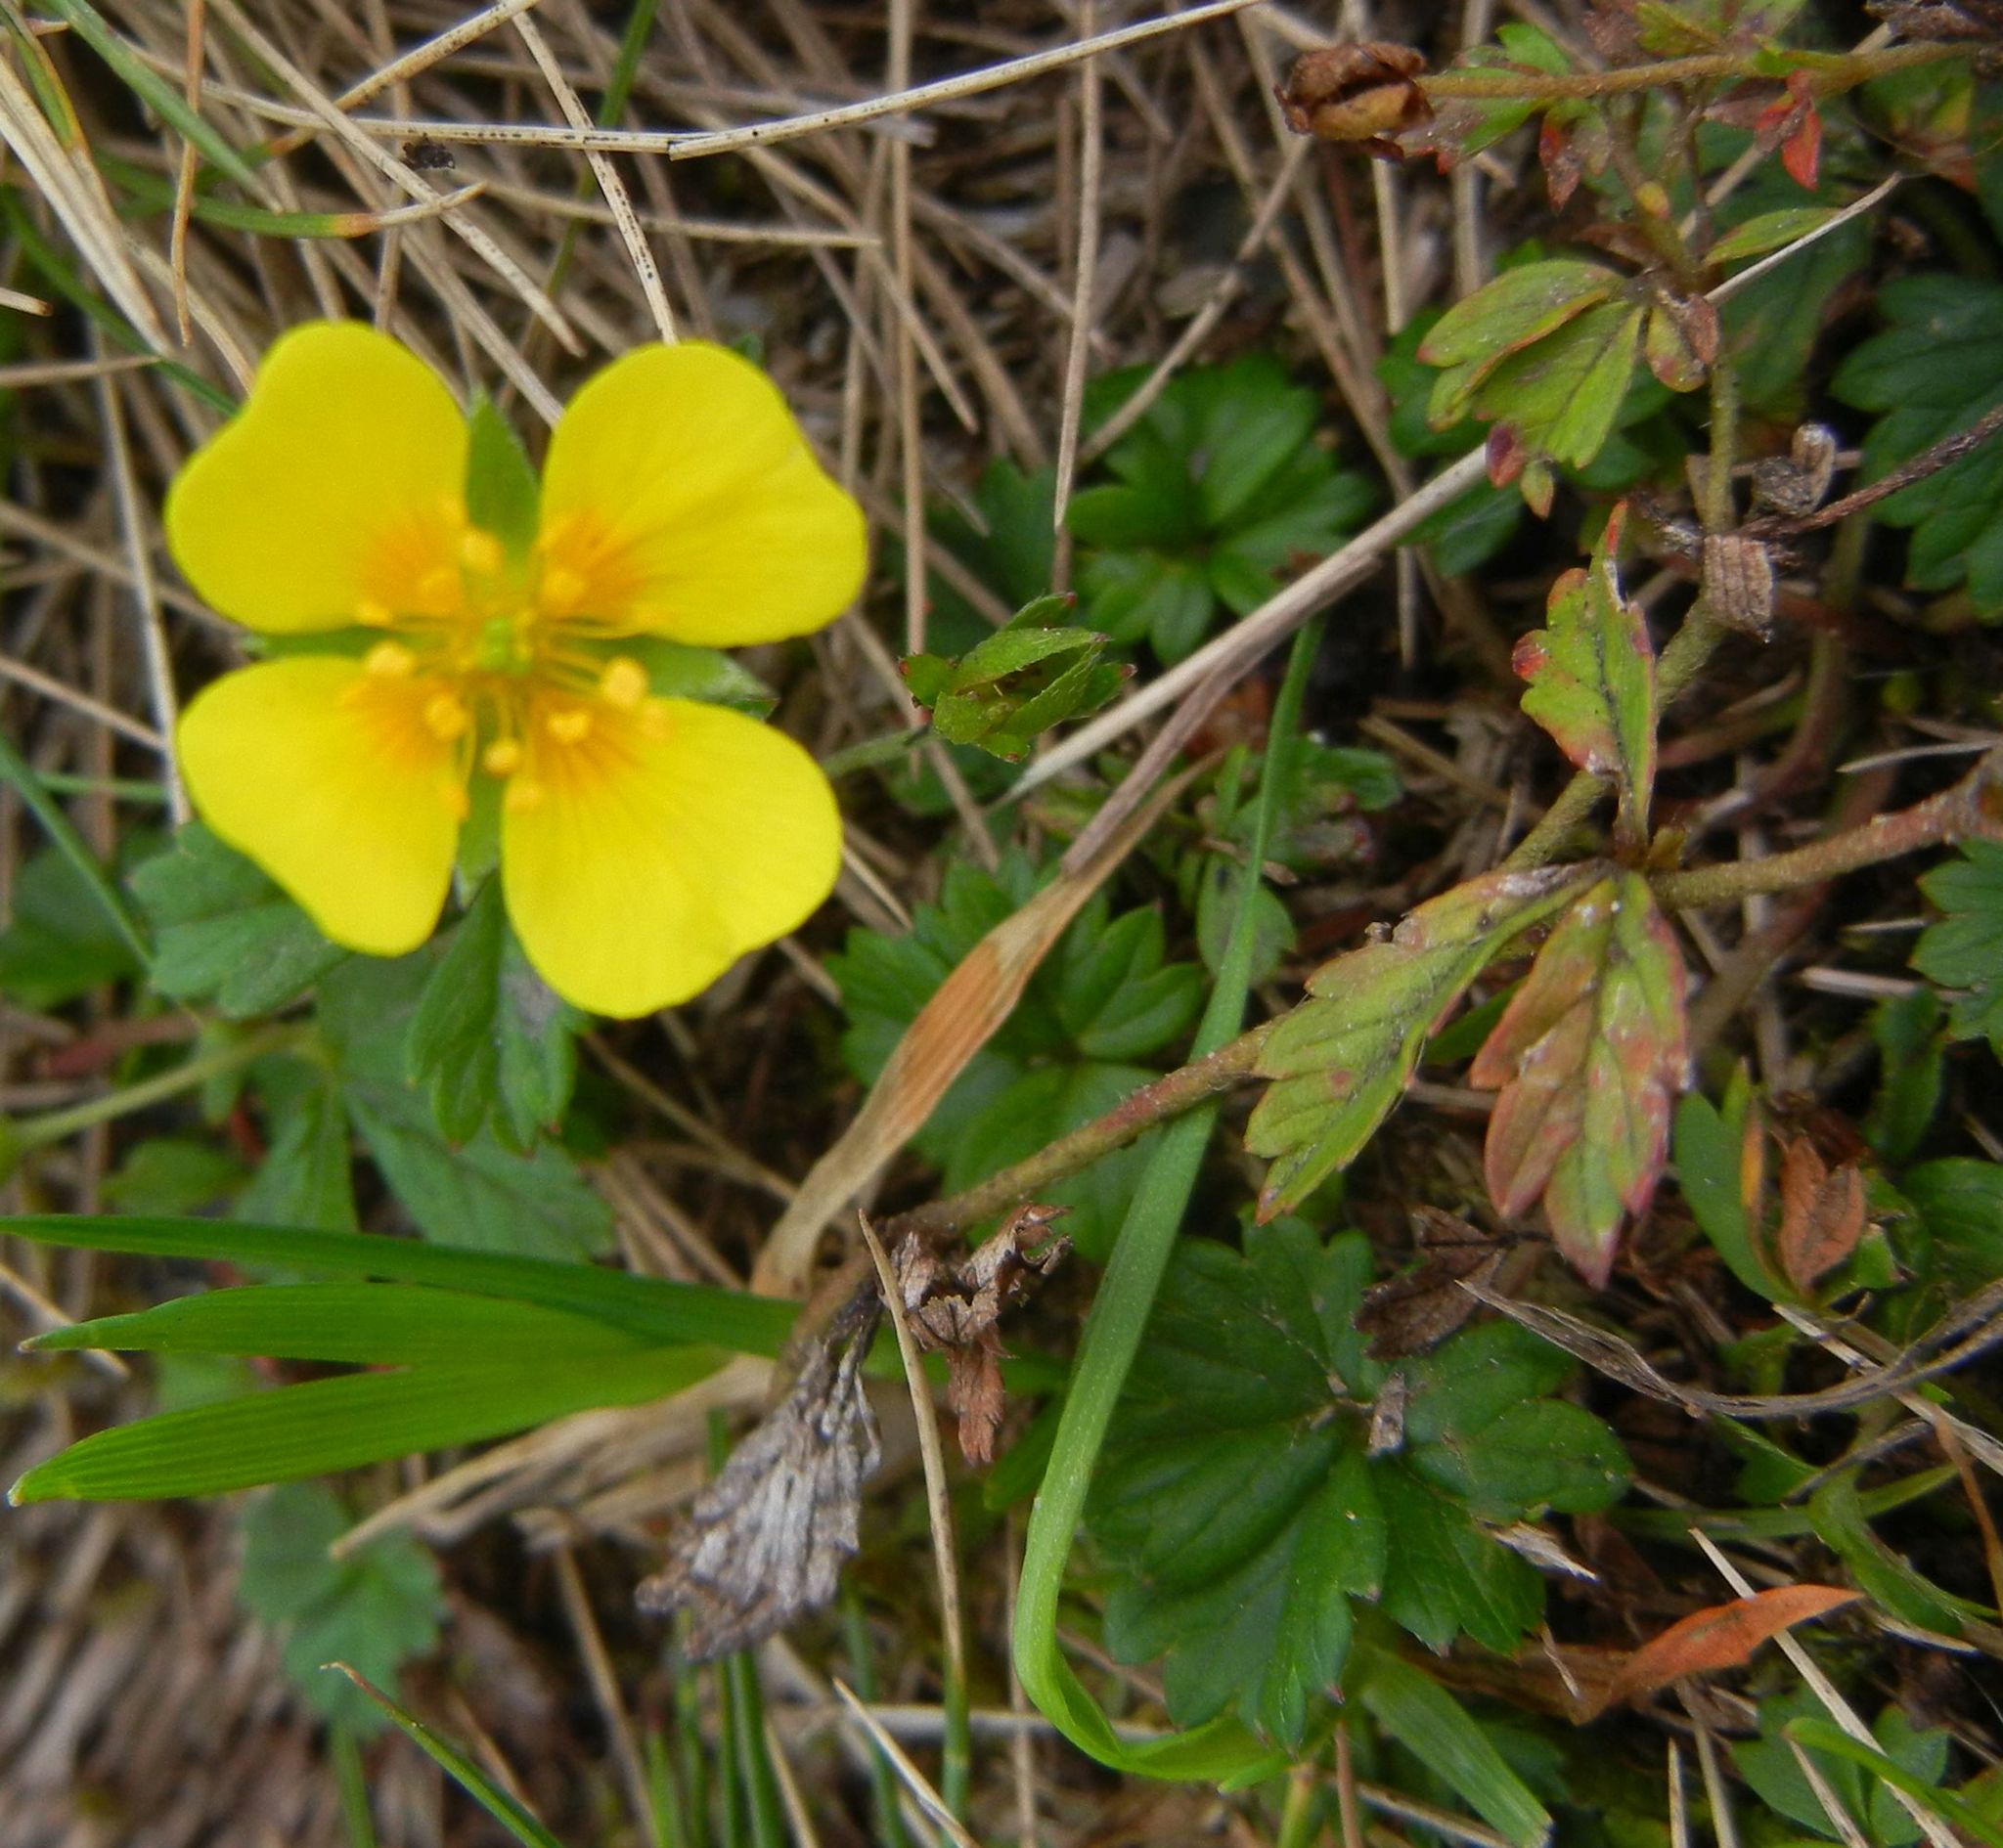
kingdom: Plantae
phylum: Tracheophyta
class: Magnoliopsida
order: Rosales
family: Rosaceae
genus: Potentilla
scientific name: Potentilla erecta
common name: Tormentil
